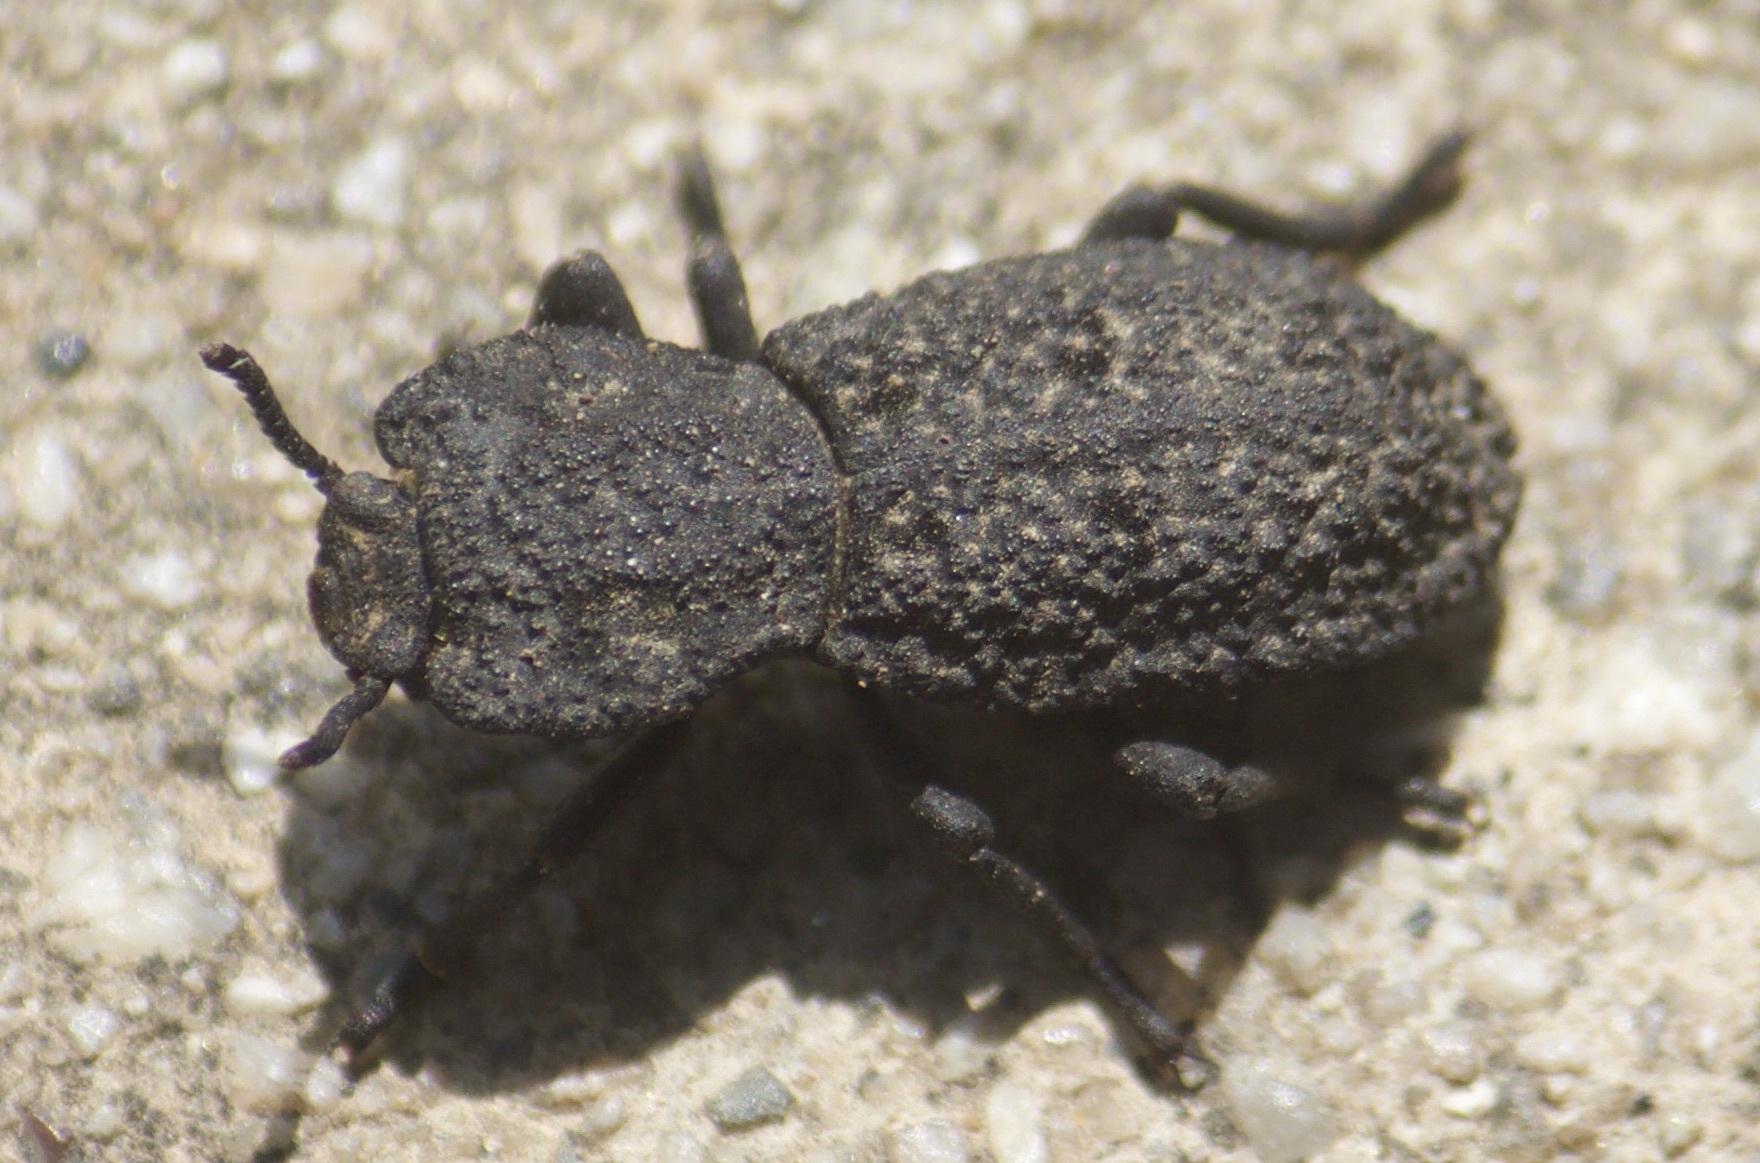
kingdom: Animalia
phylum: Arthropoda
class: Insecta
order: Coleoptera
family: Zopheridae
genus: Phloeodes
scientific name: Phloeodes diabolicus
